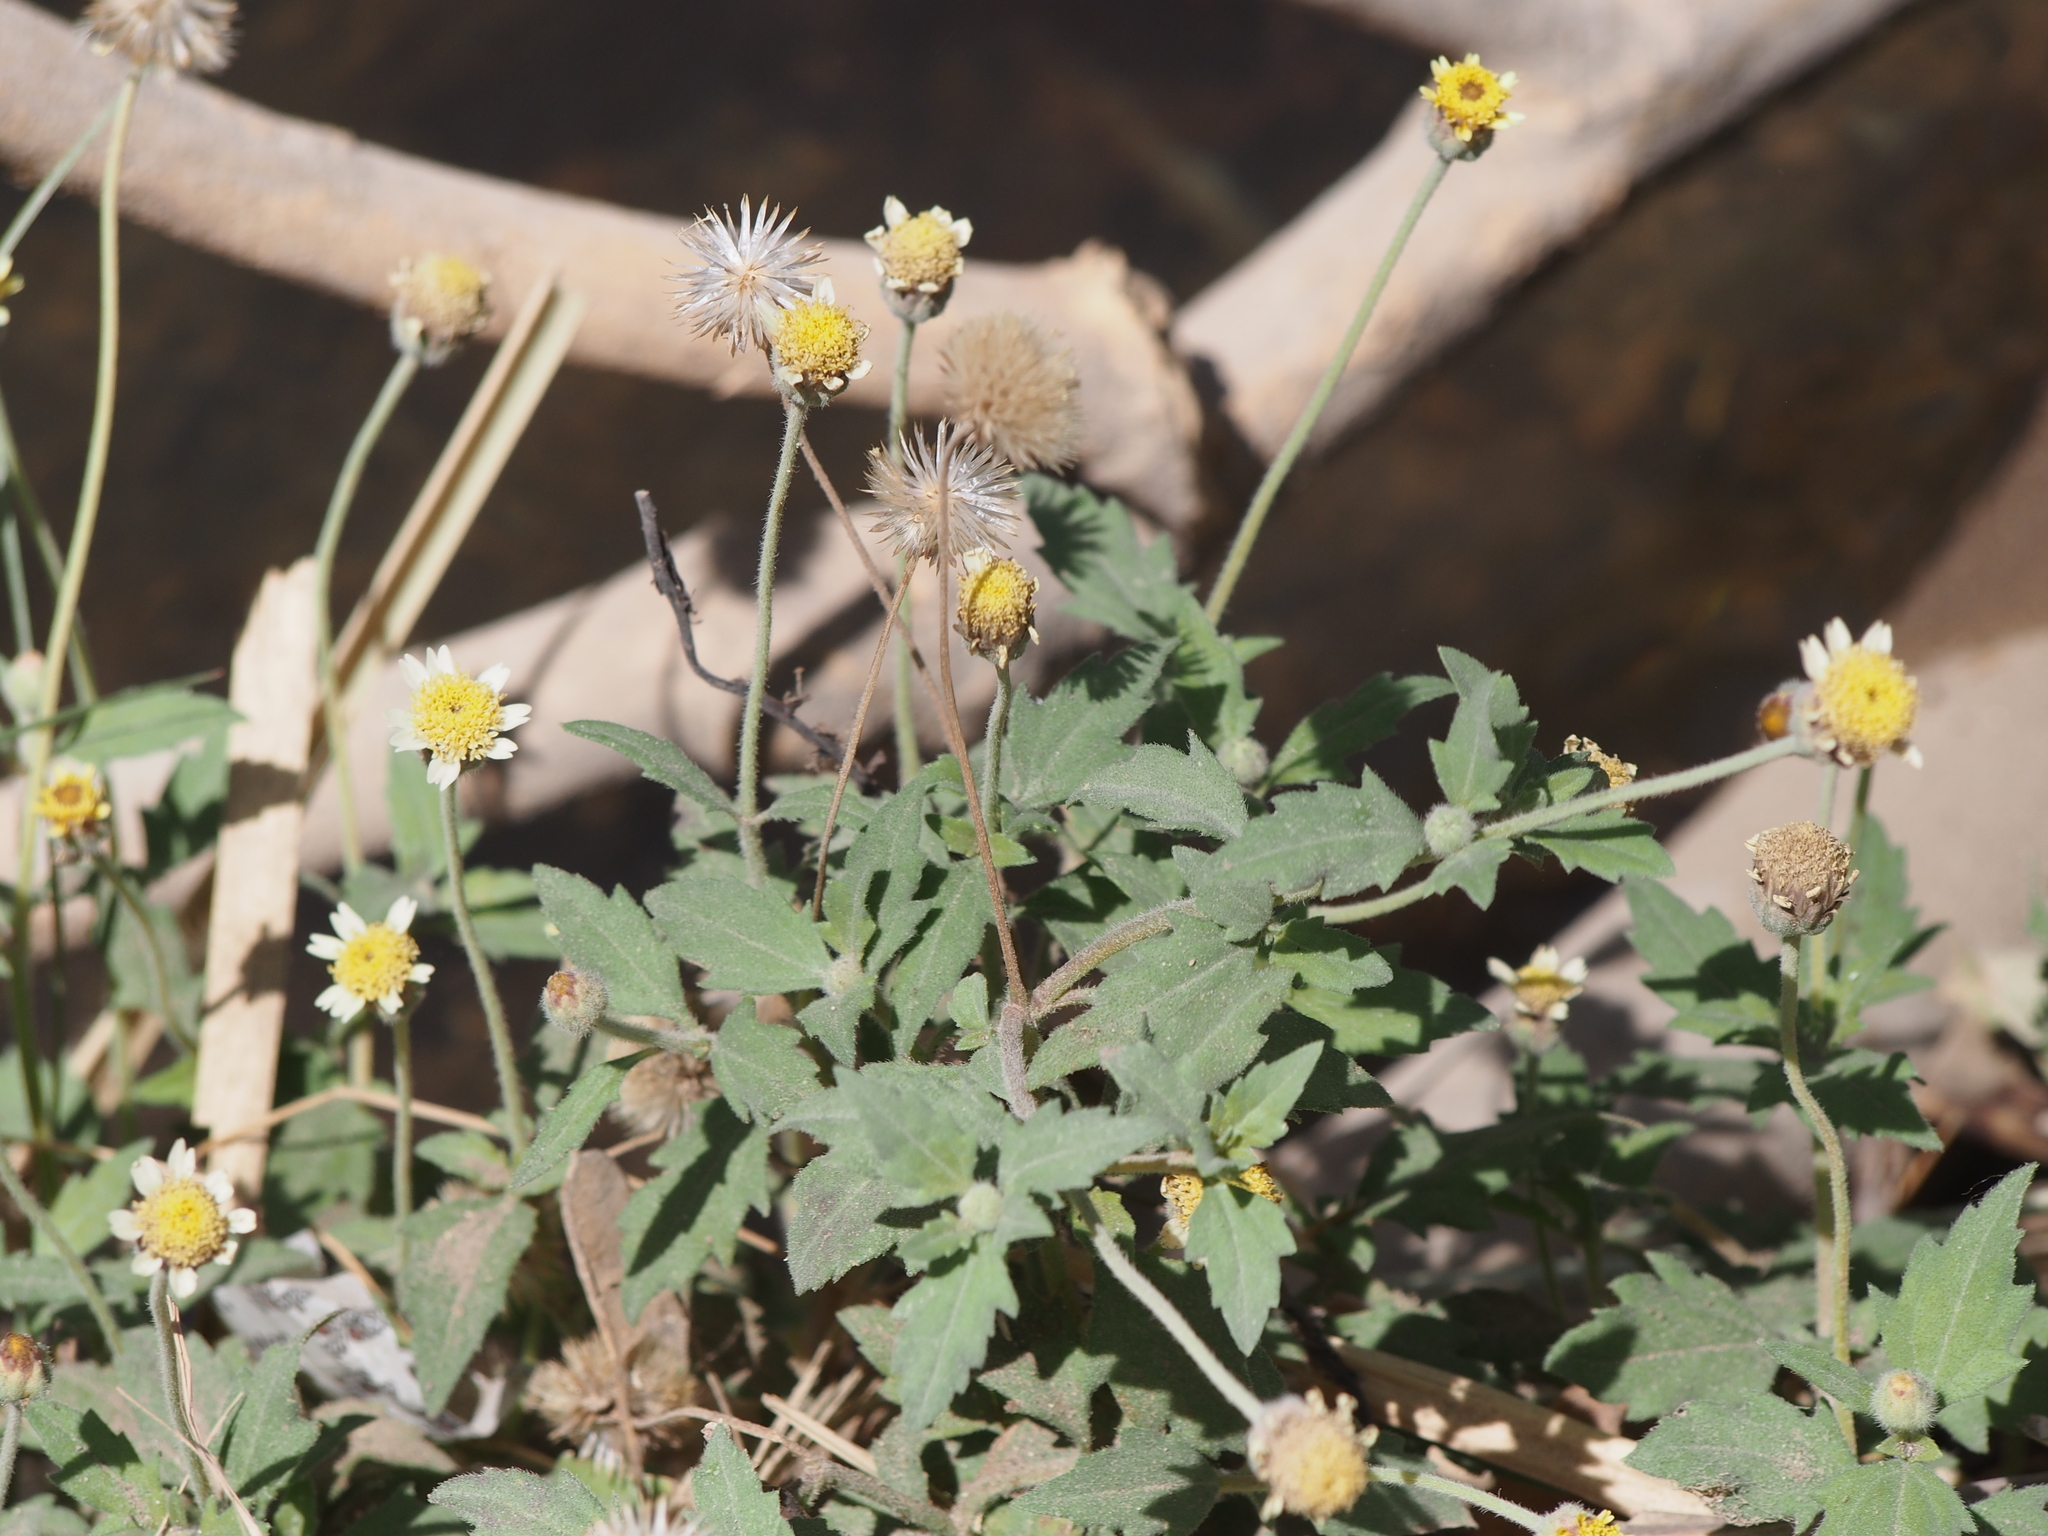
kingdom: Plantae
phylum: Tracheophyta
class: Magnoliopsida
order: Asterales
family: Asteraceae
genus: Tridax
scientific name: Tridax procumbens
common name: Coatbuttons
